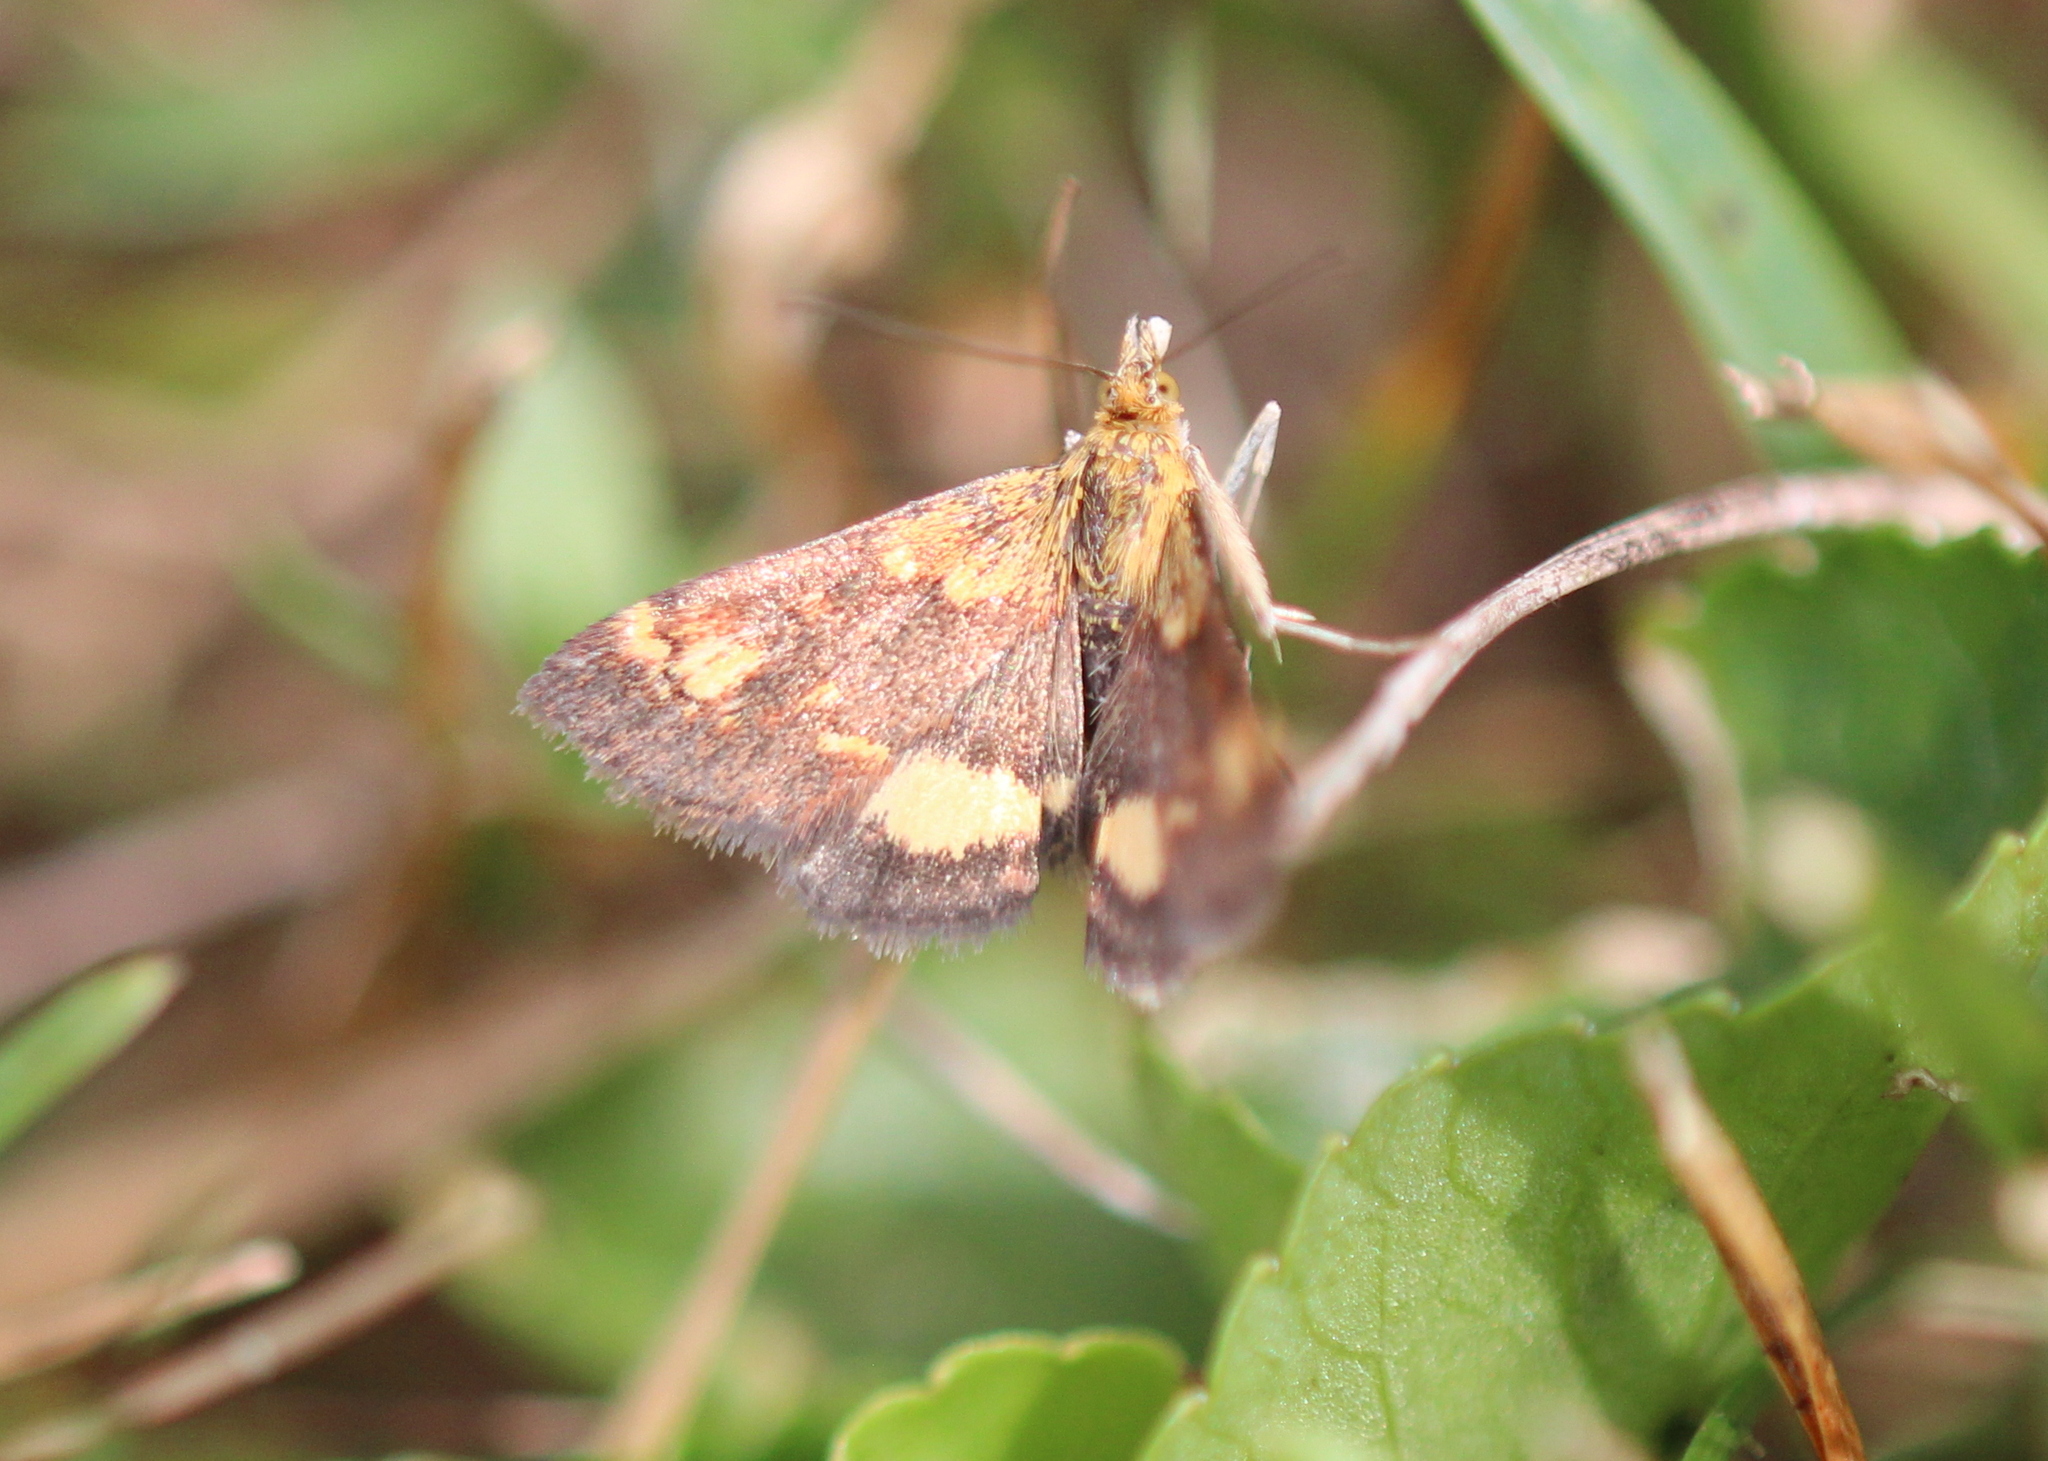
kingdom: Animalia
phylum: Arthropoda
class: Insecta
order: Lepidoptera
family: Crambidae
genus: Pyrausta
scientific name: Pyrausta orphisalis
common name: Orange mint moth
